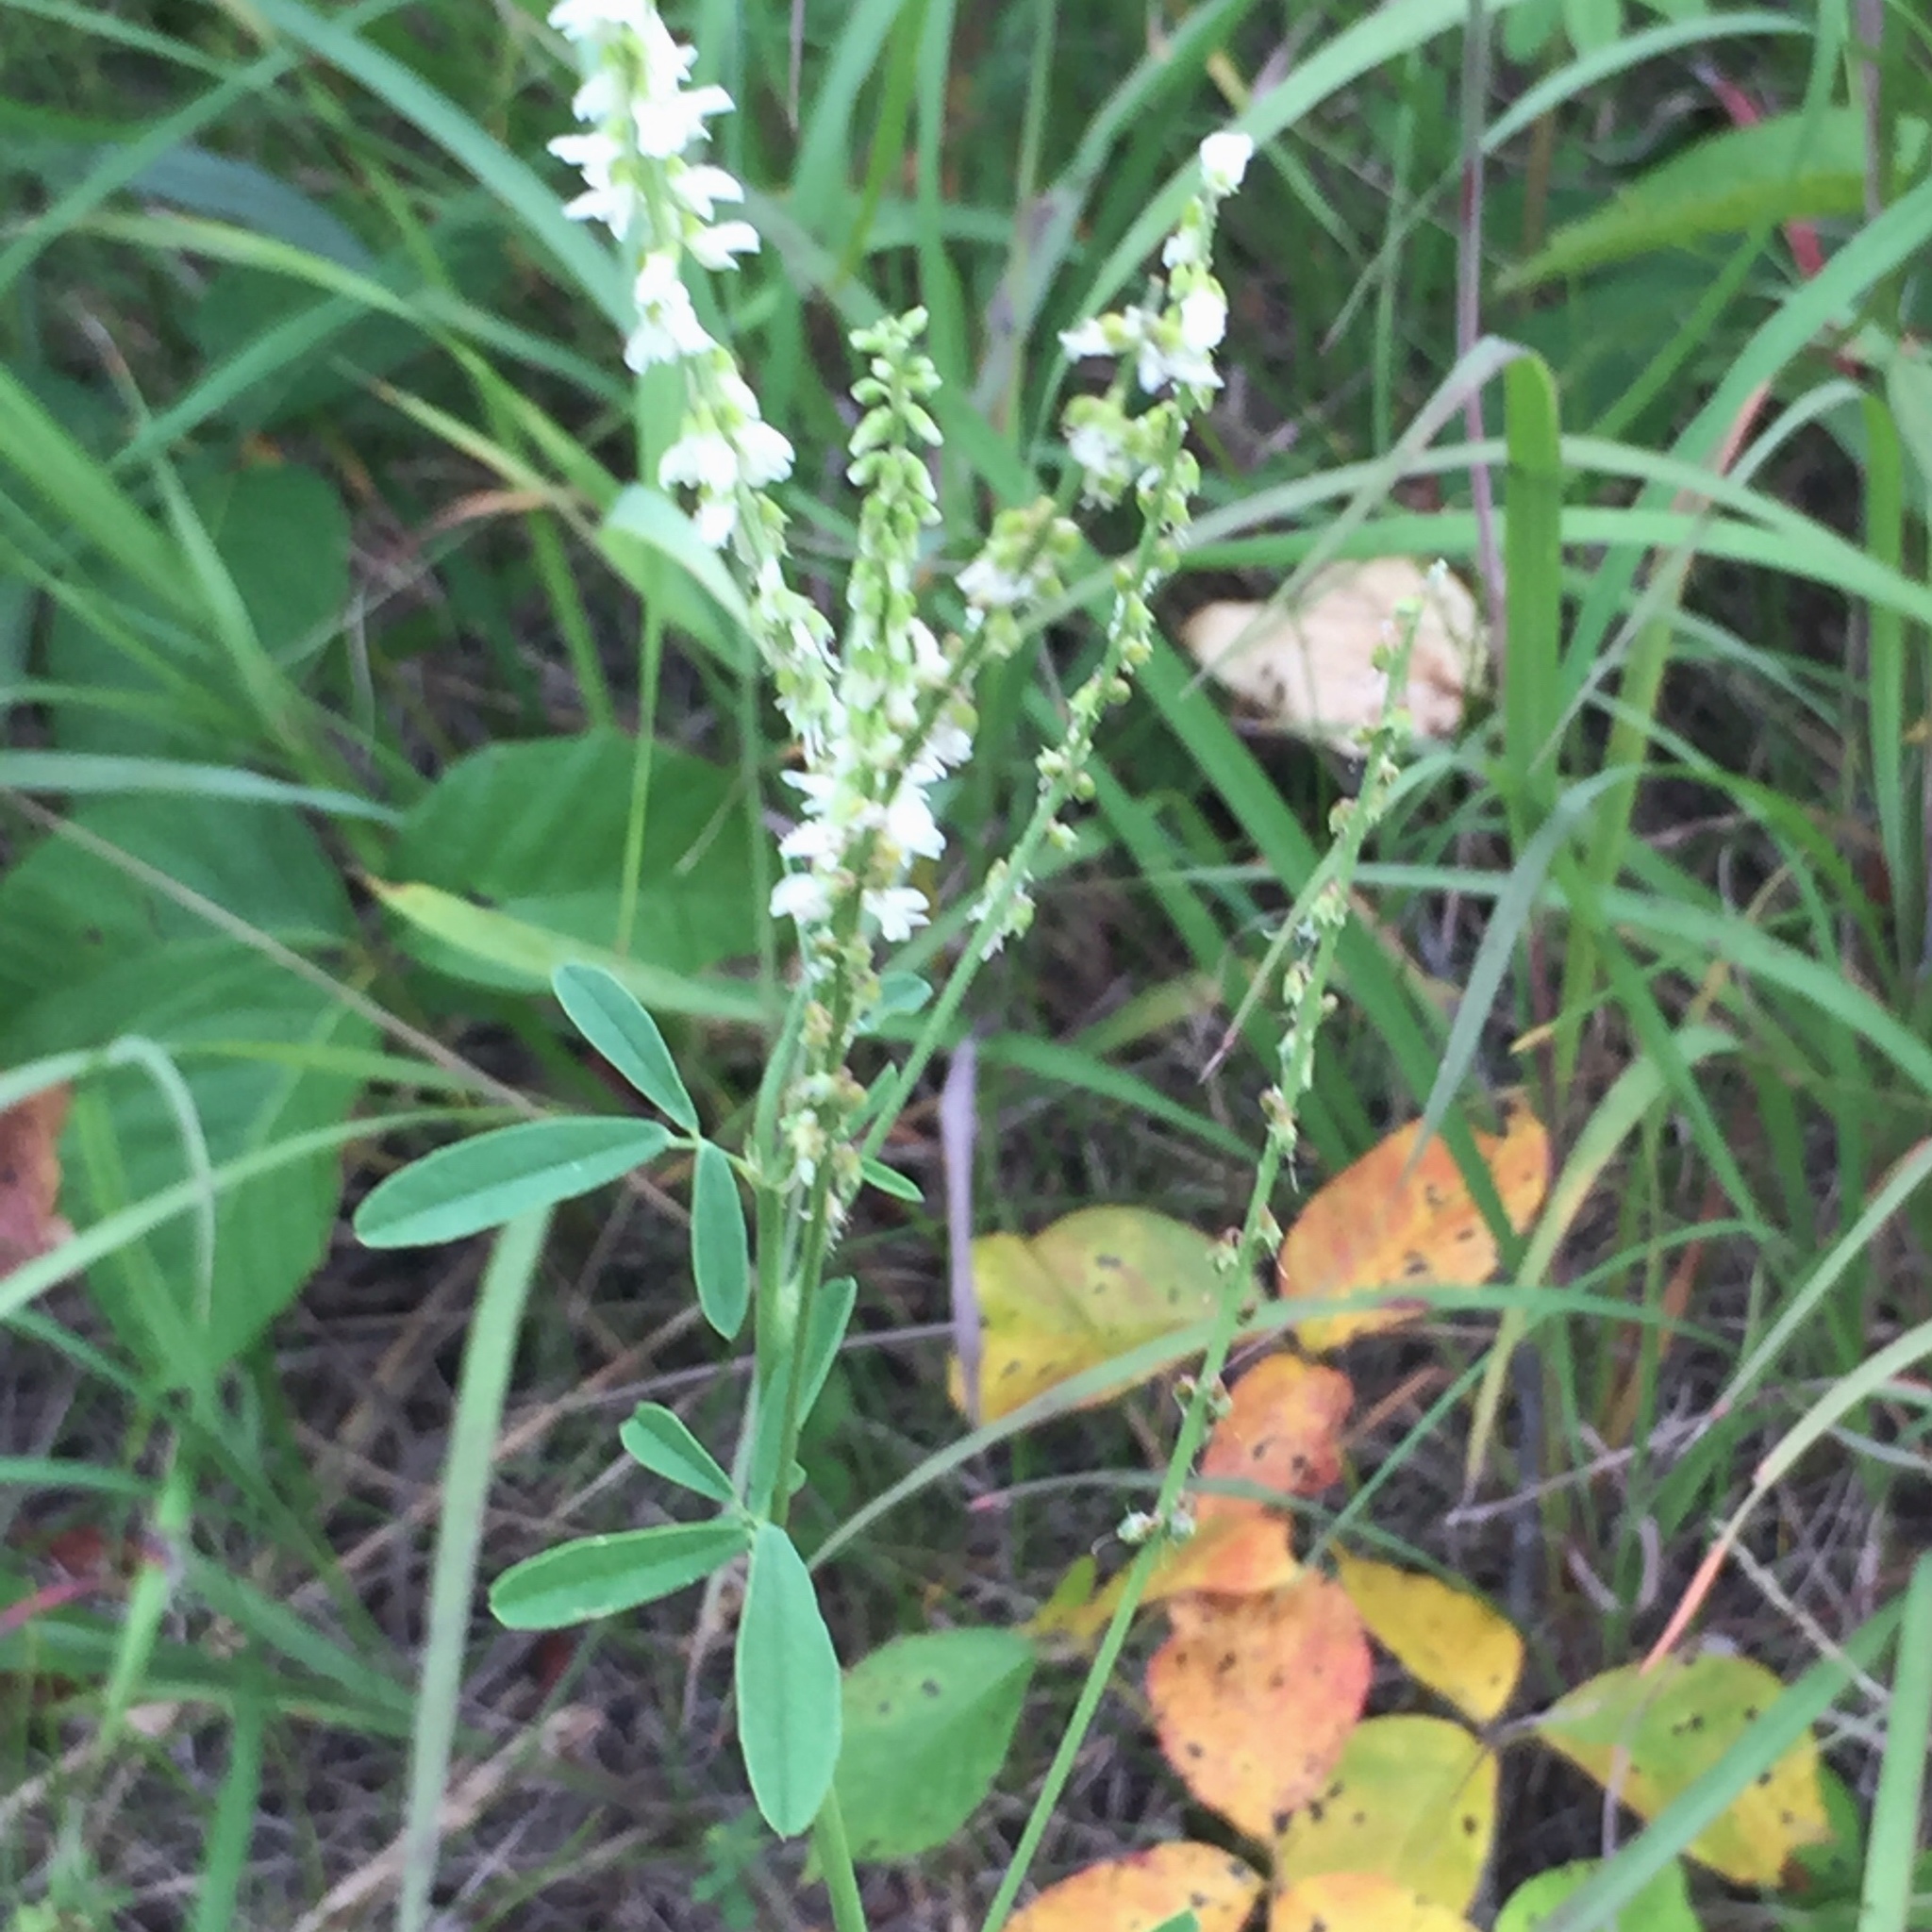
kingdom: Plantae
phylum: Tracheophyta
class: Magnoliopsida
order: Fabales
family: Fabaceae
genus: Melilotus
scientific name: Melilotus albus
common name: White melilot
